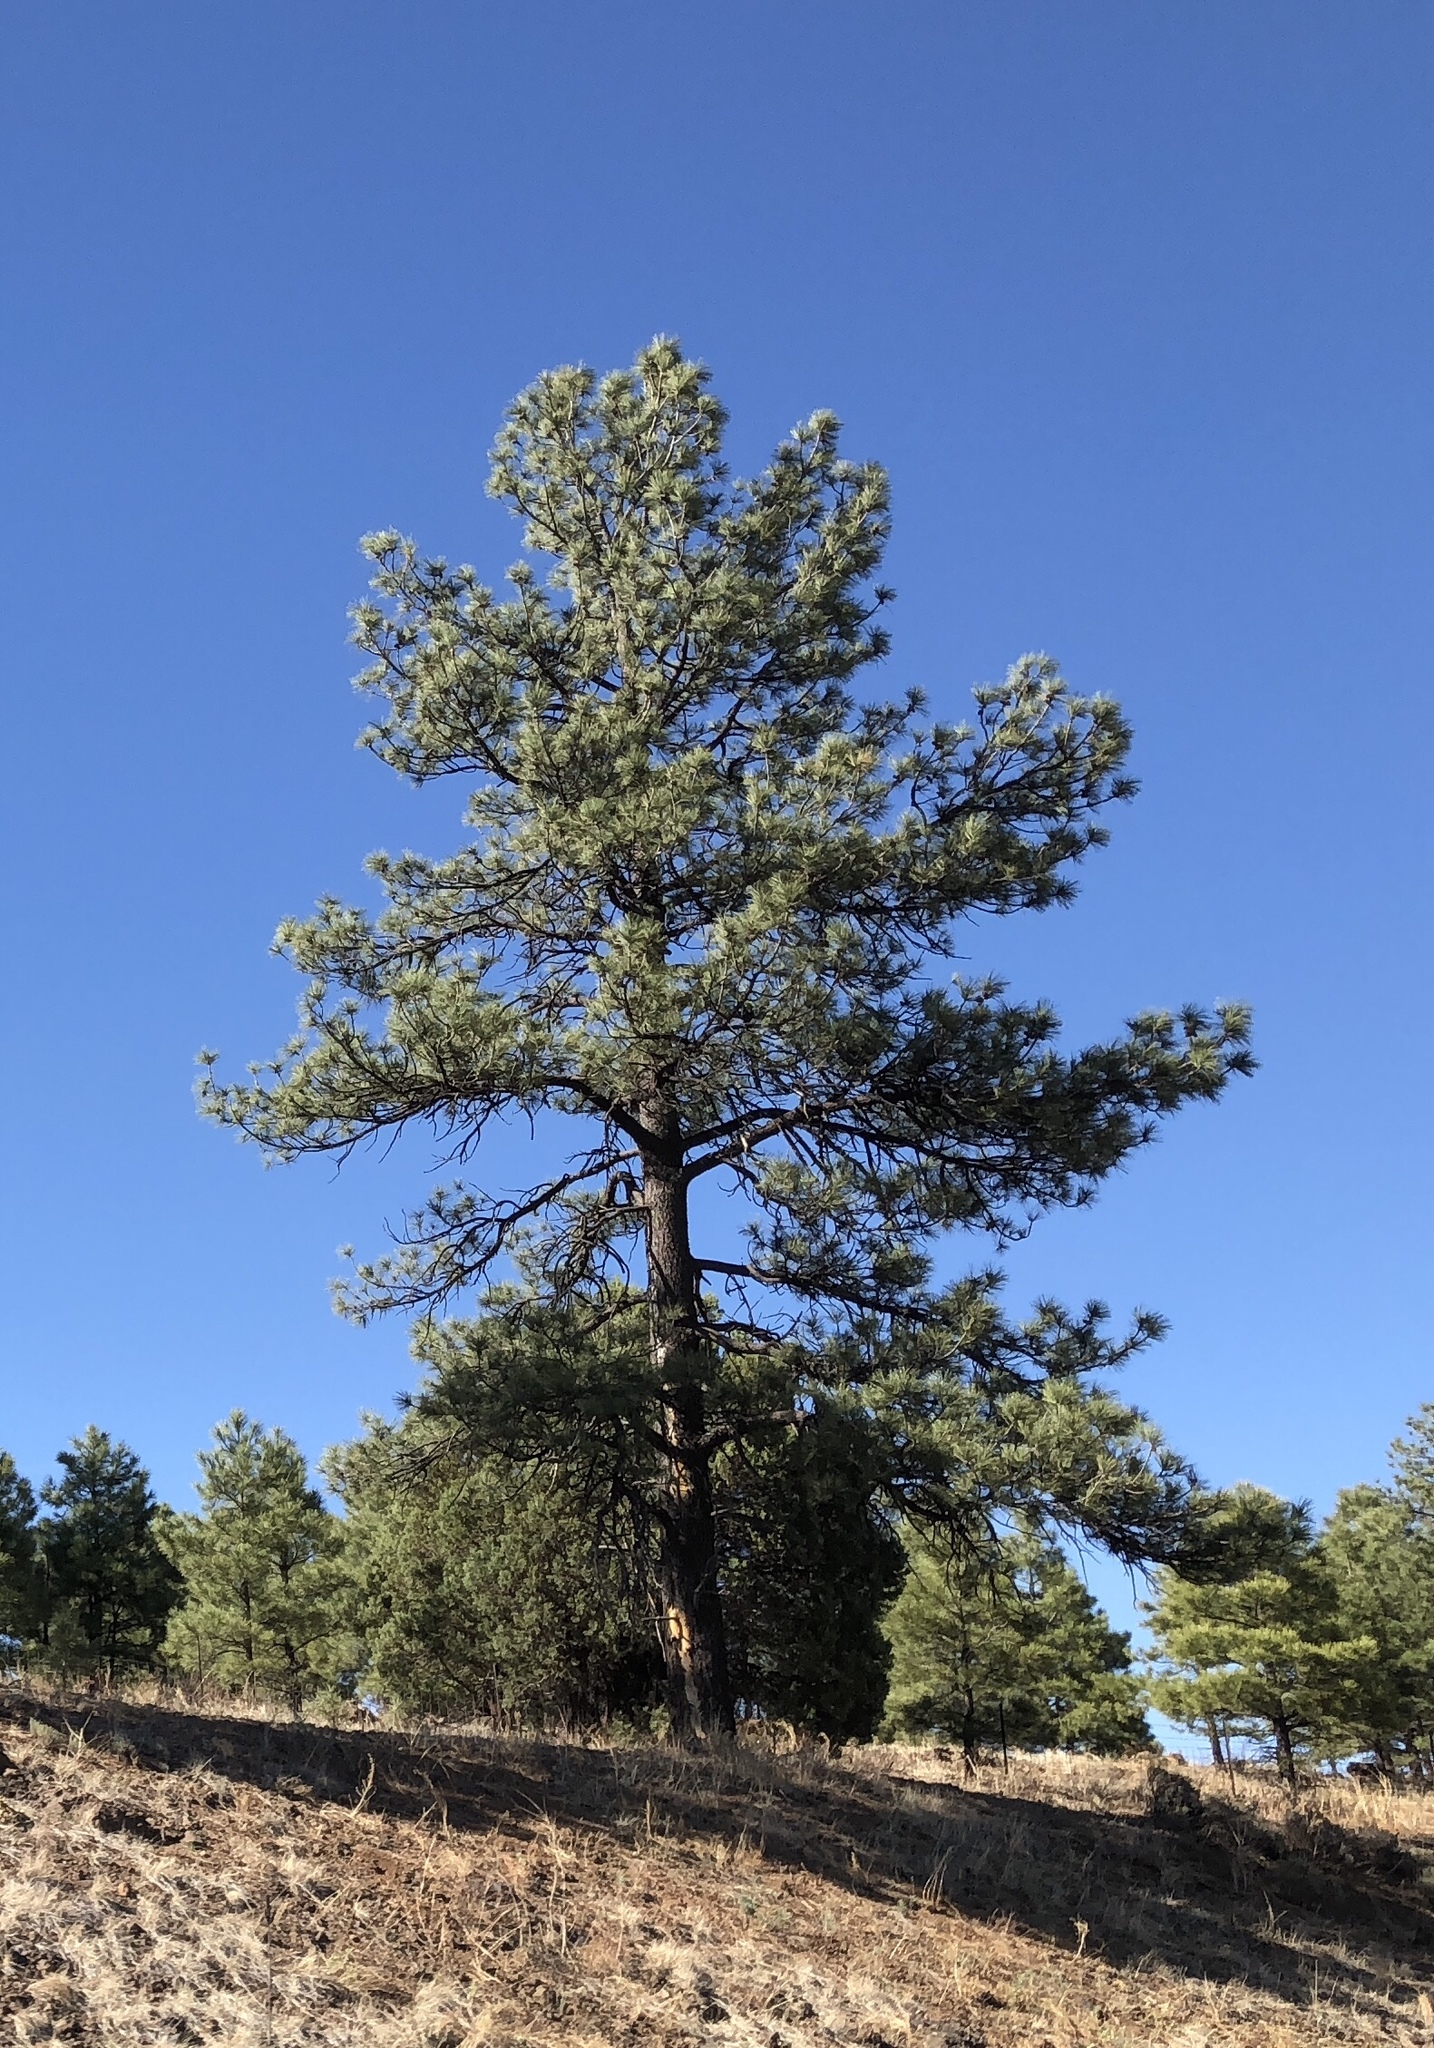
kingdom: Plantae
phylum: Tracheophyta
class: Pinopsida
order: Pinales
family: Pinaceae
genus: Pinus
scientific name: Pinus ponderosa
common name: Western yellow-pine
